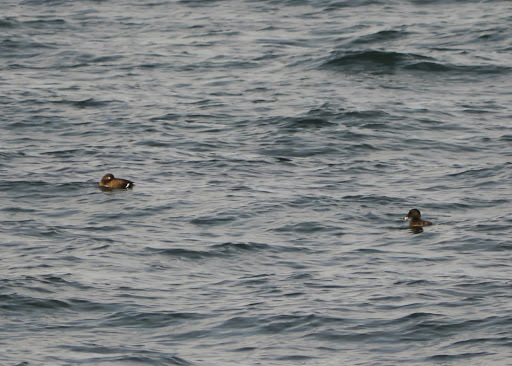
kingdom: Animalia
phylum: Chordata
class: Aves
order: Anseriformes
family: Anatidae
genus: Melanitta
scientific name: Melanitta deglandi
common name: White-winged scoter
